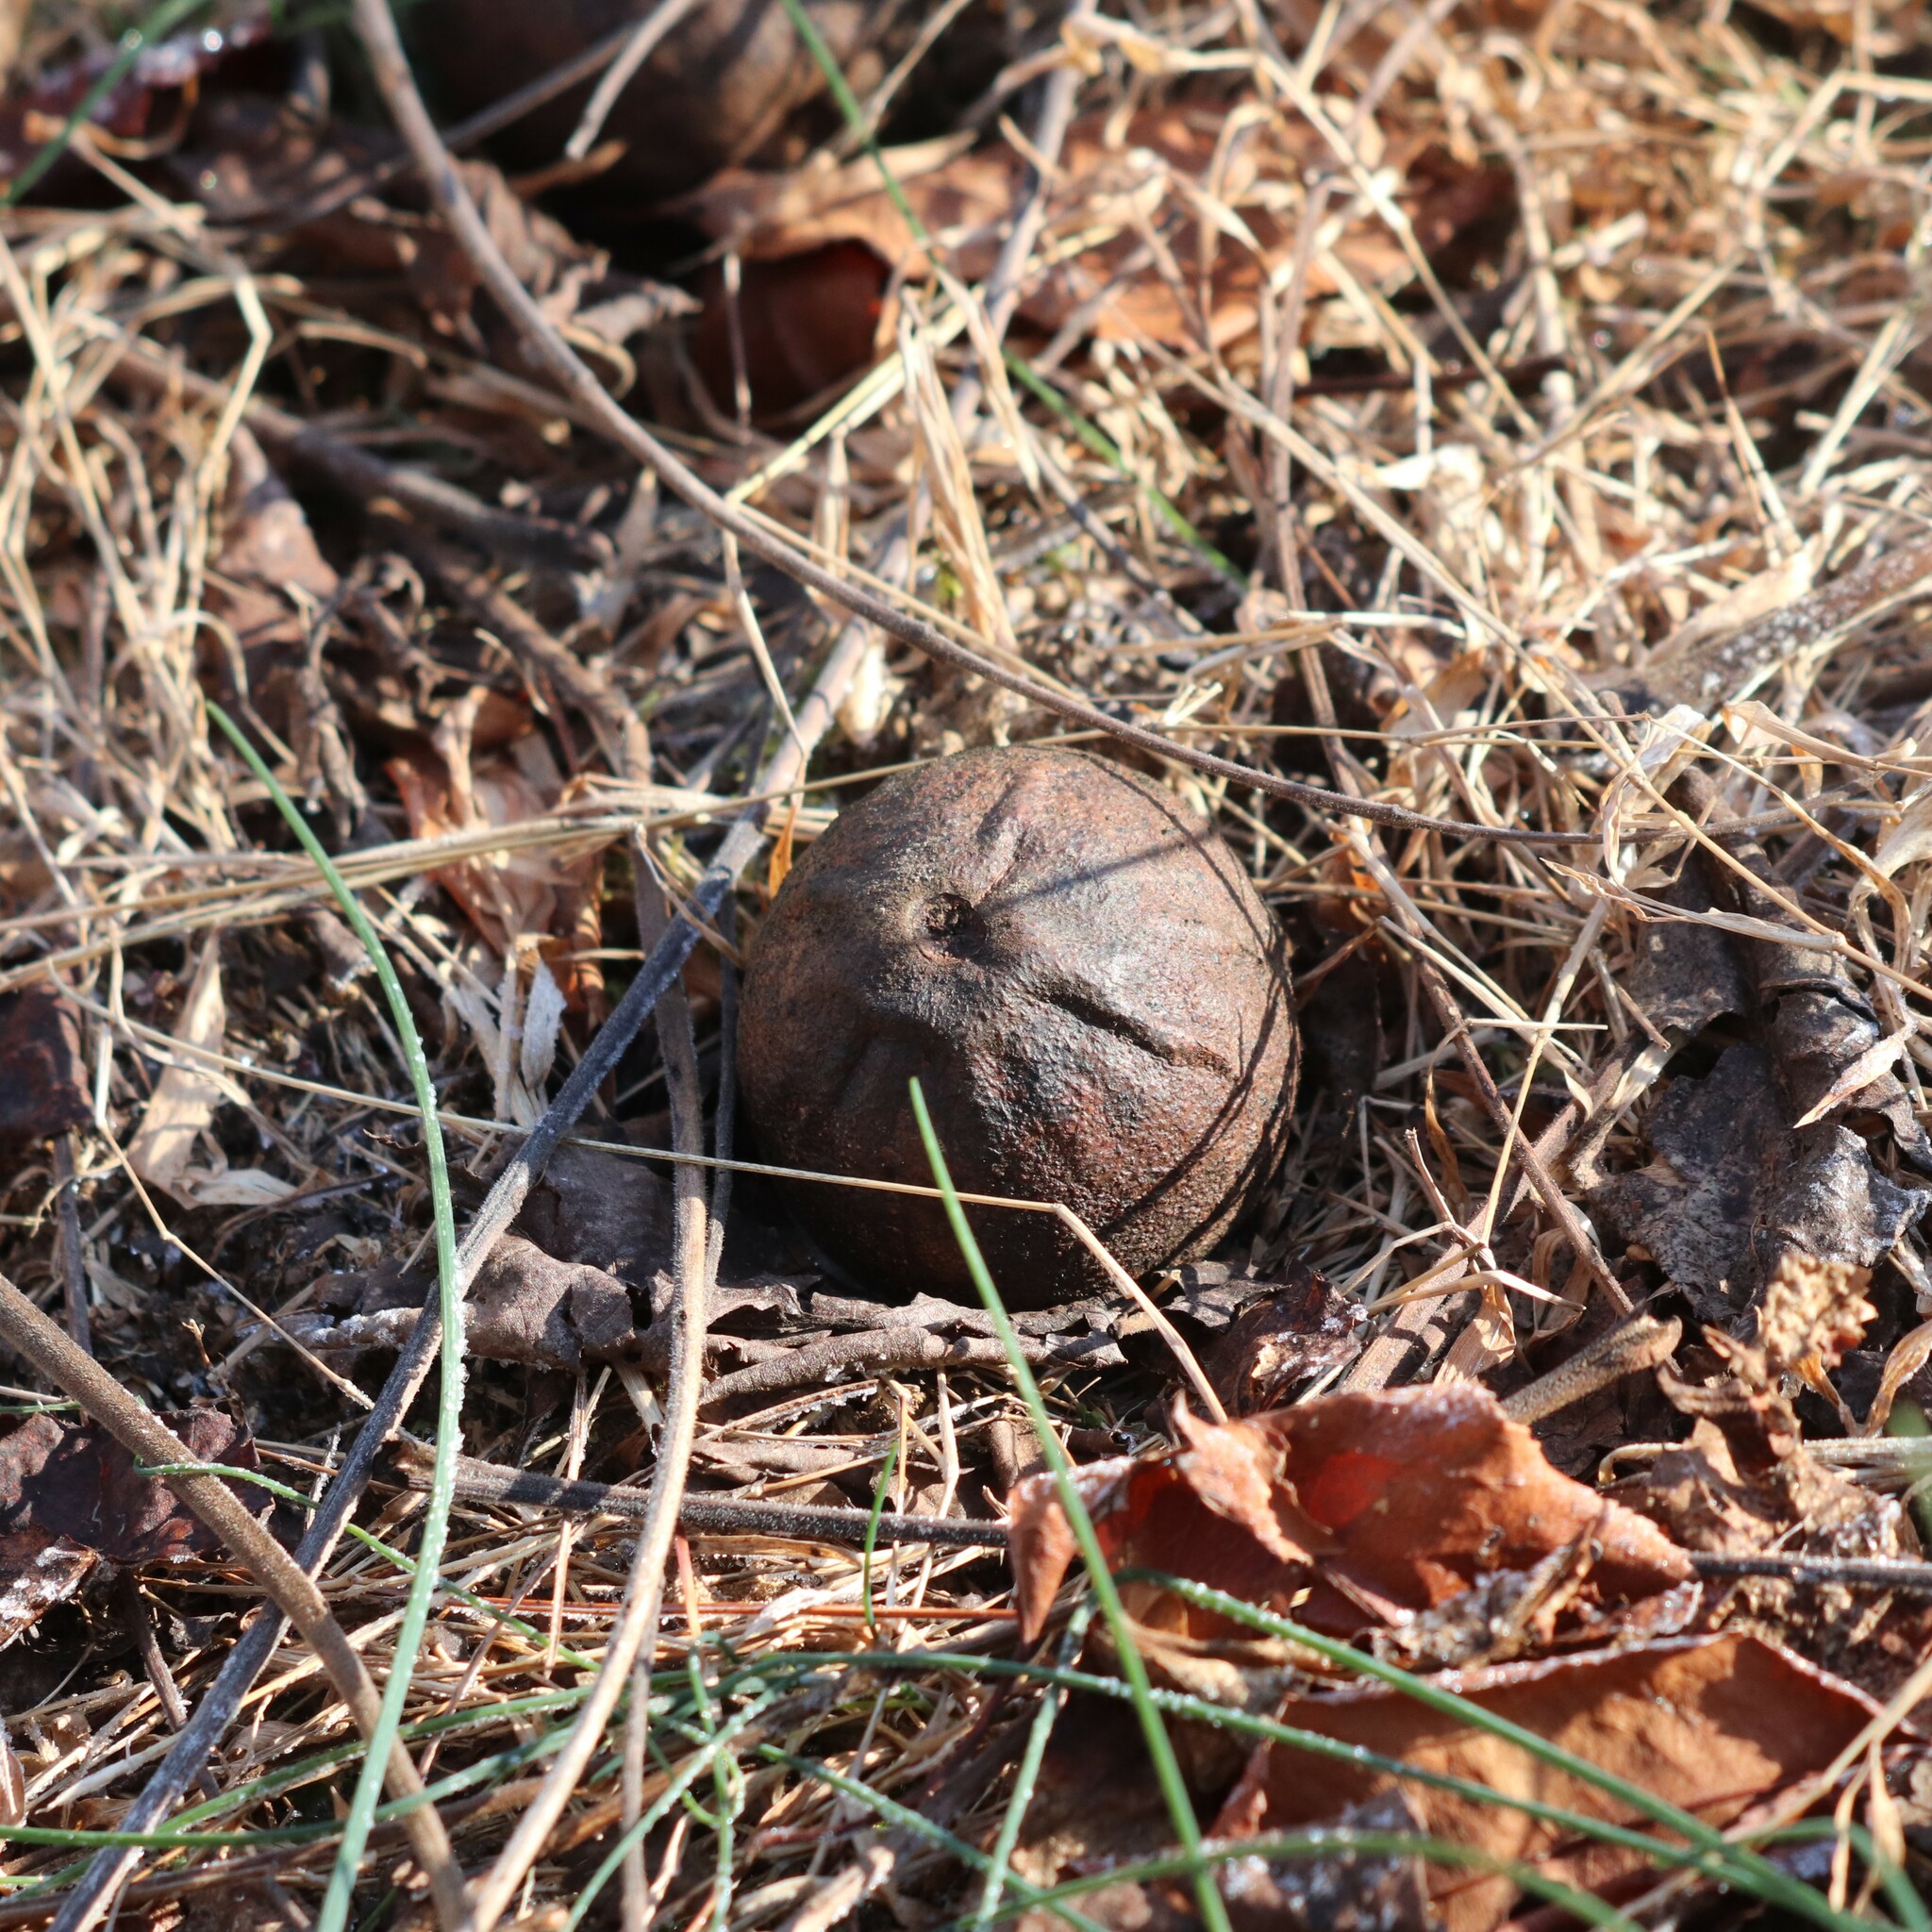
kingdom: Plantae
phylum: Tracheophyta
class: Magnoliopsida
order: Fagales
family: Juglandaceae
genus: Juglans
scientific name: Juglans nigra
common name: Black walnut
